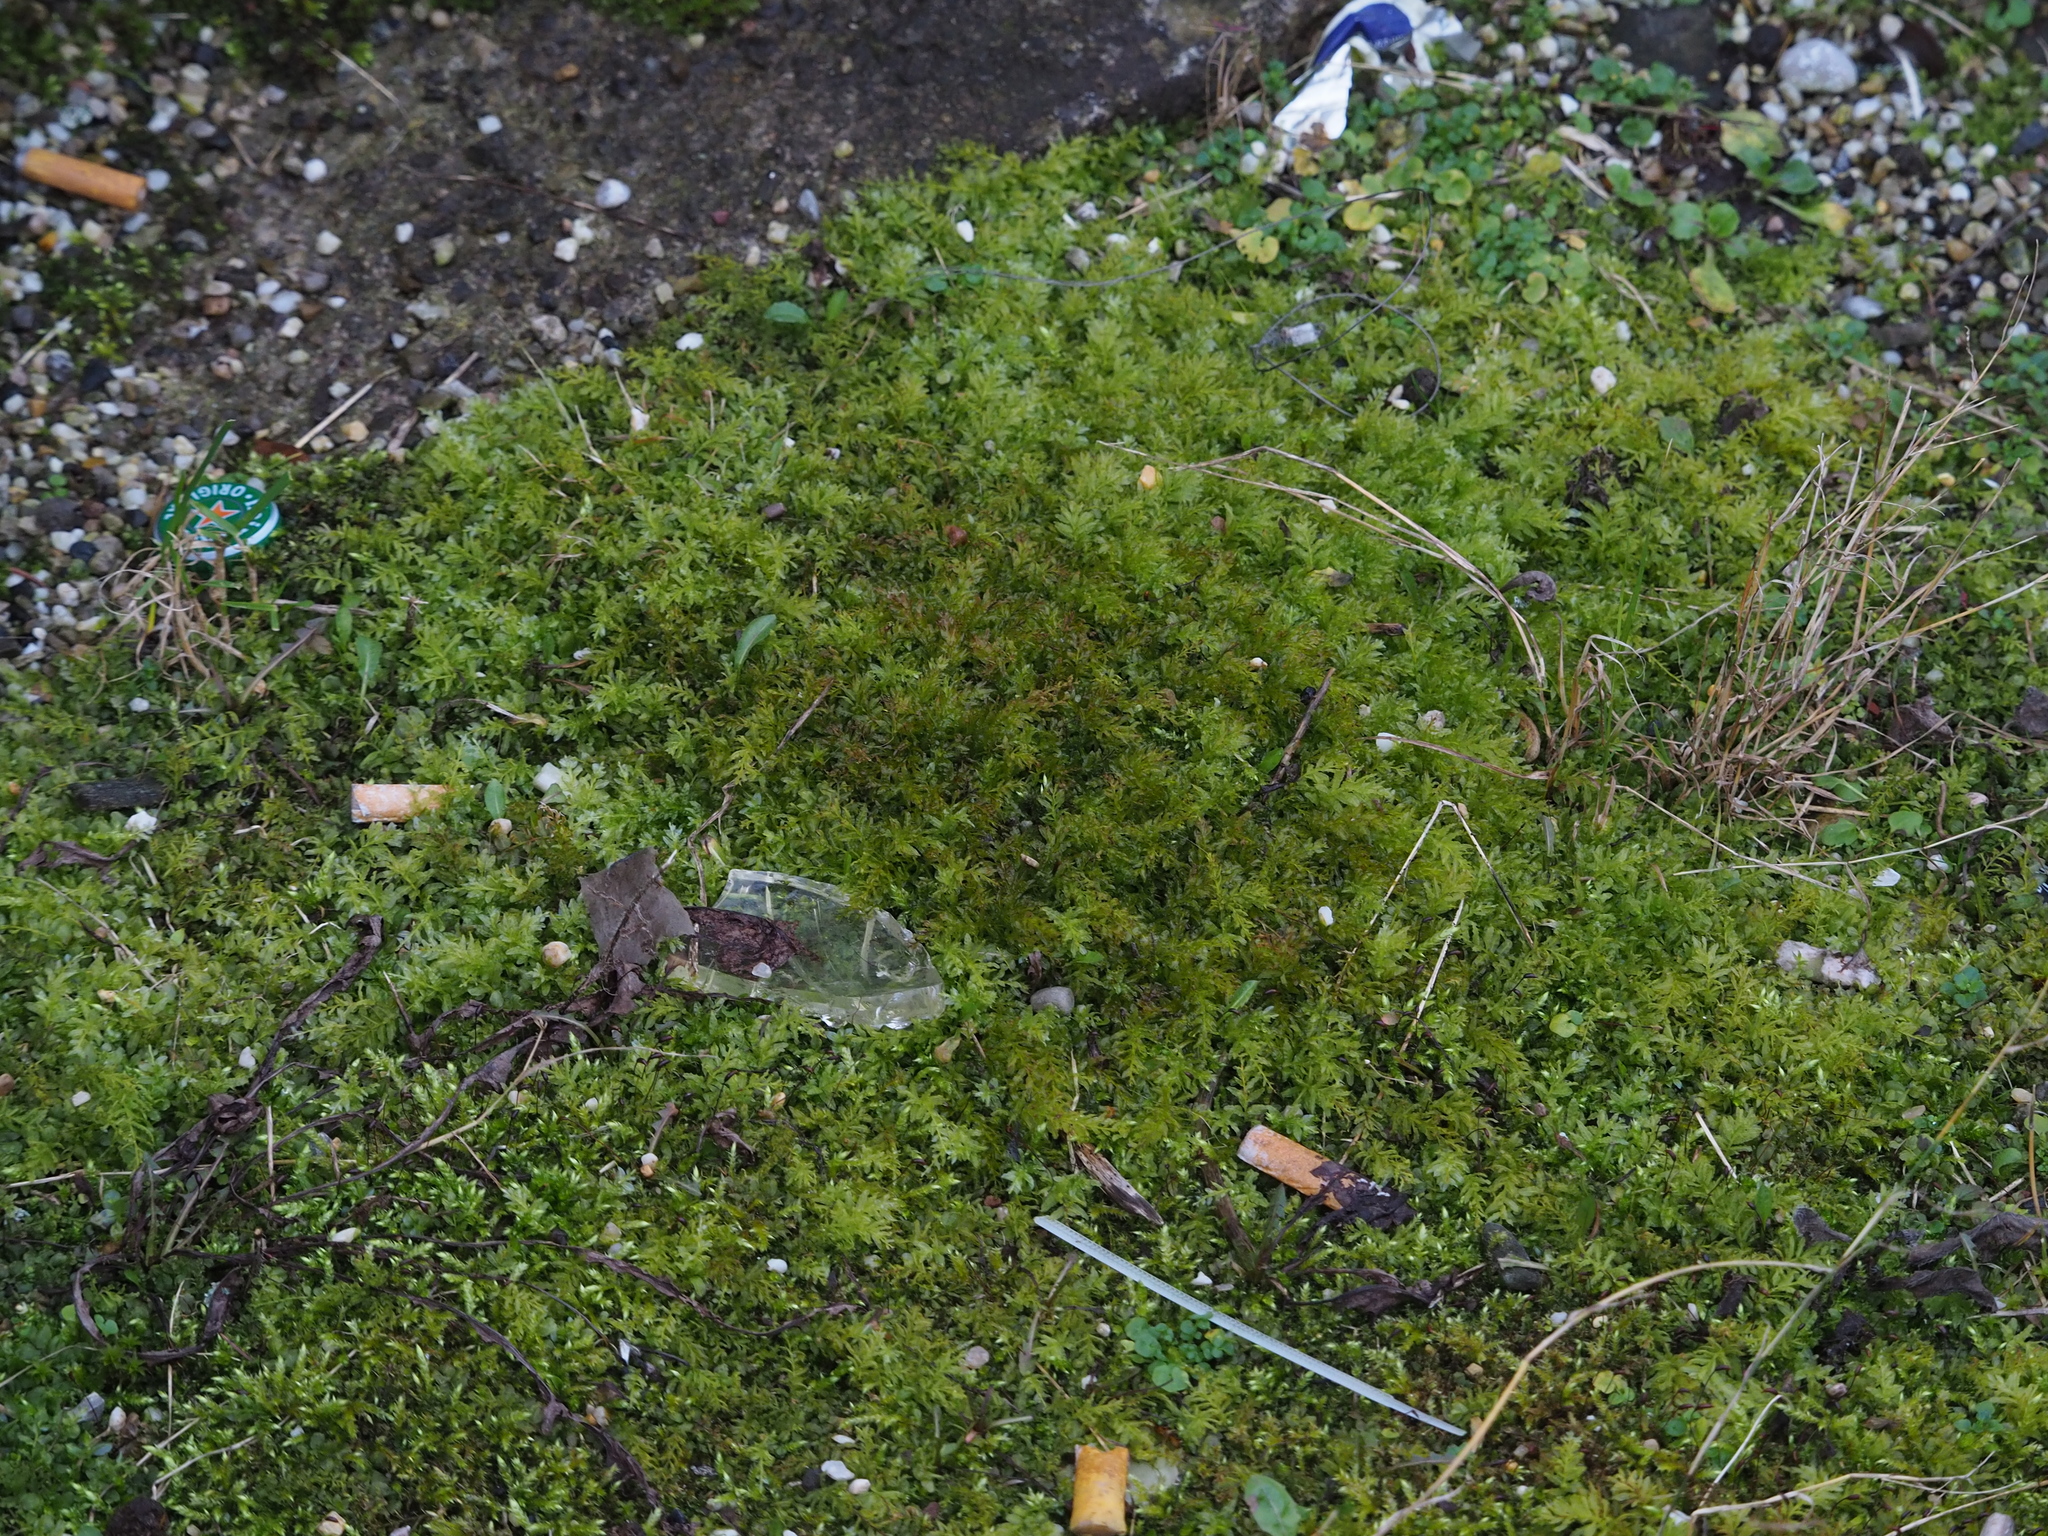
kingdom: Plantae
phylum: Bryophyta
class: Bryopsida
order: Bryales
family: Mniaceae
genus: Plagiomnium
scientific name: Plagiomnium undulatum
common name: Hart's-tongue thyme-moss
